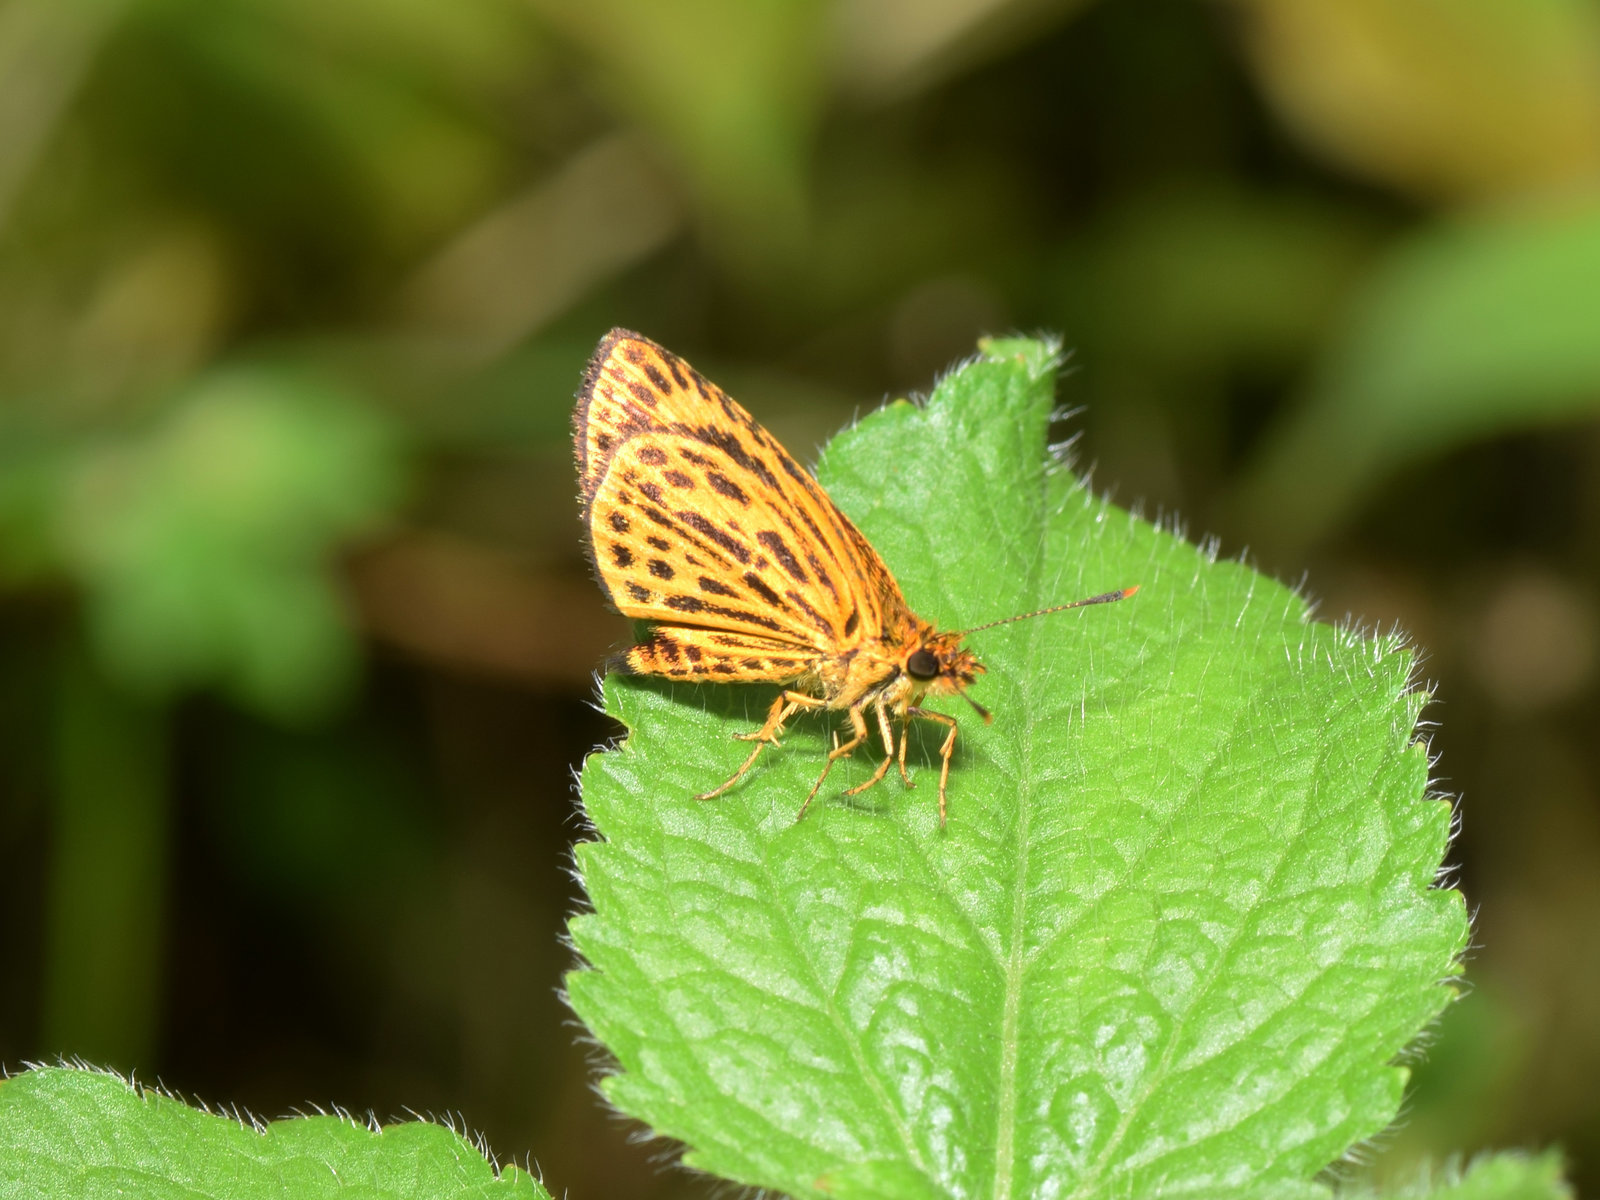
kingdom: Animalia
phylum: Arthropoda
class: Insecta
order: Lepidoptera
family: Hesperiidae
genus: Ampittia
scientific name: Ampittia subvittatus
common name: Tiger hopper
